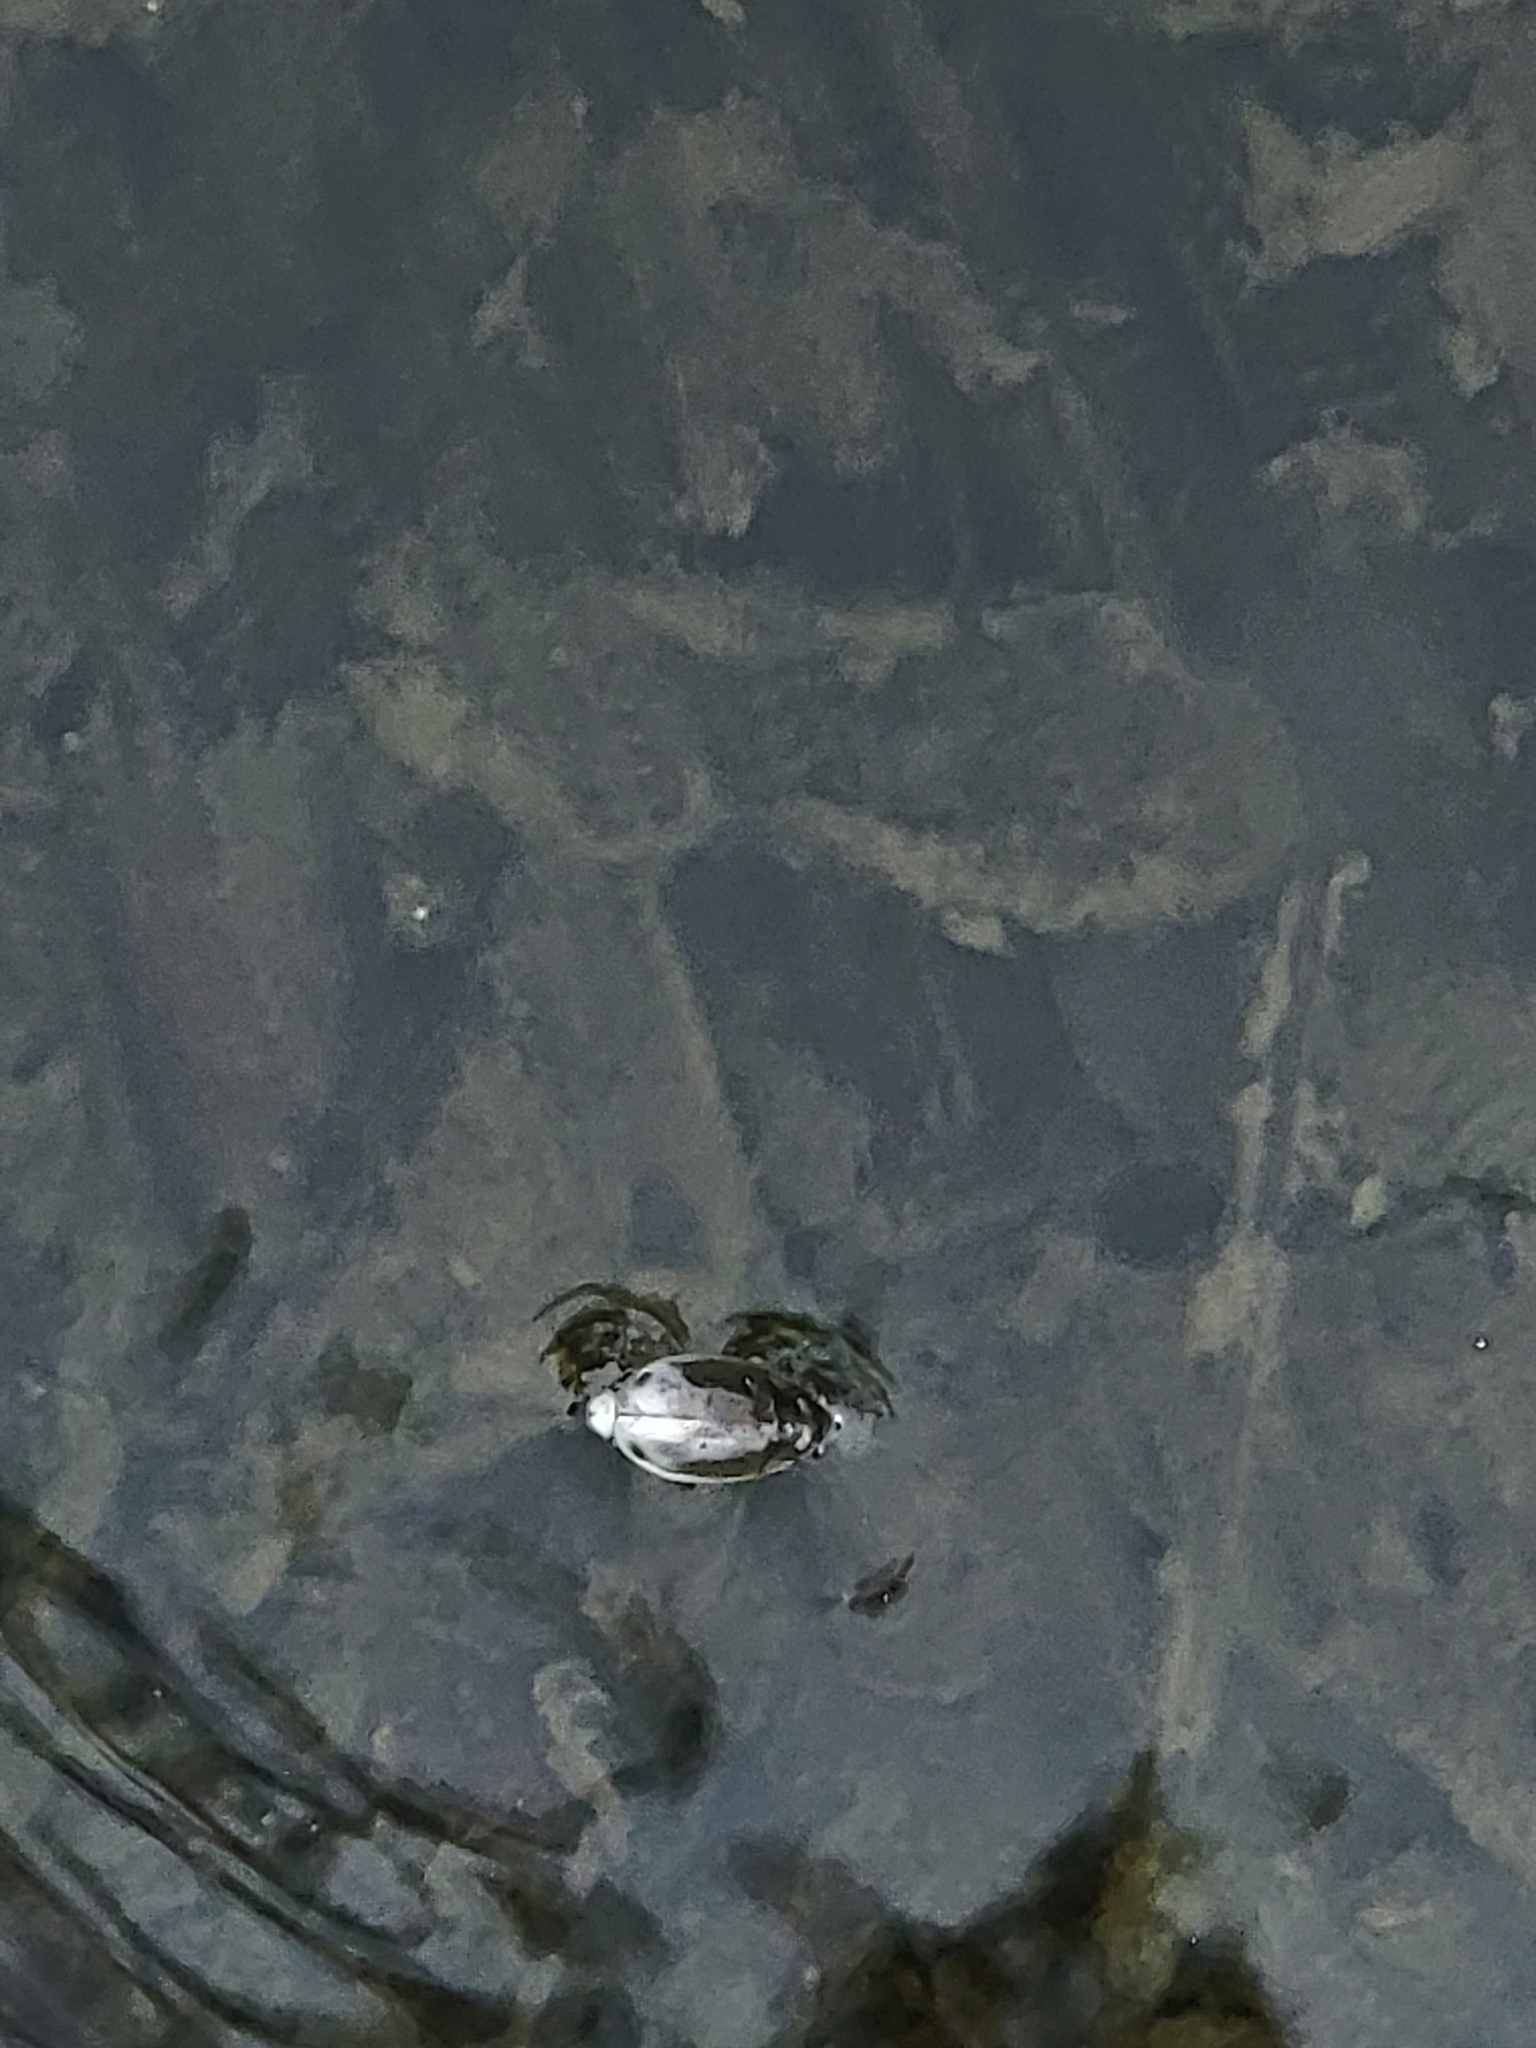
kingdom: Animalia
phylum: Arthropoda
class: Insecta
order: Coleoptera
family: Gyrinidae
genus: Dineutus
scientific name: Dineutus
